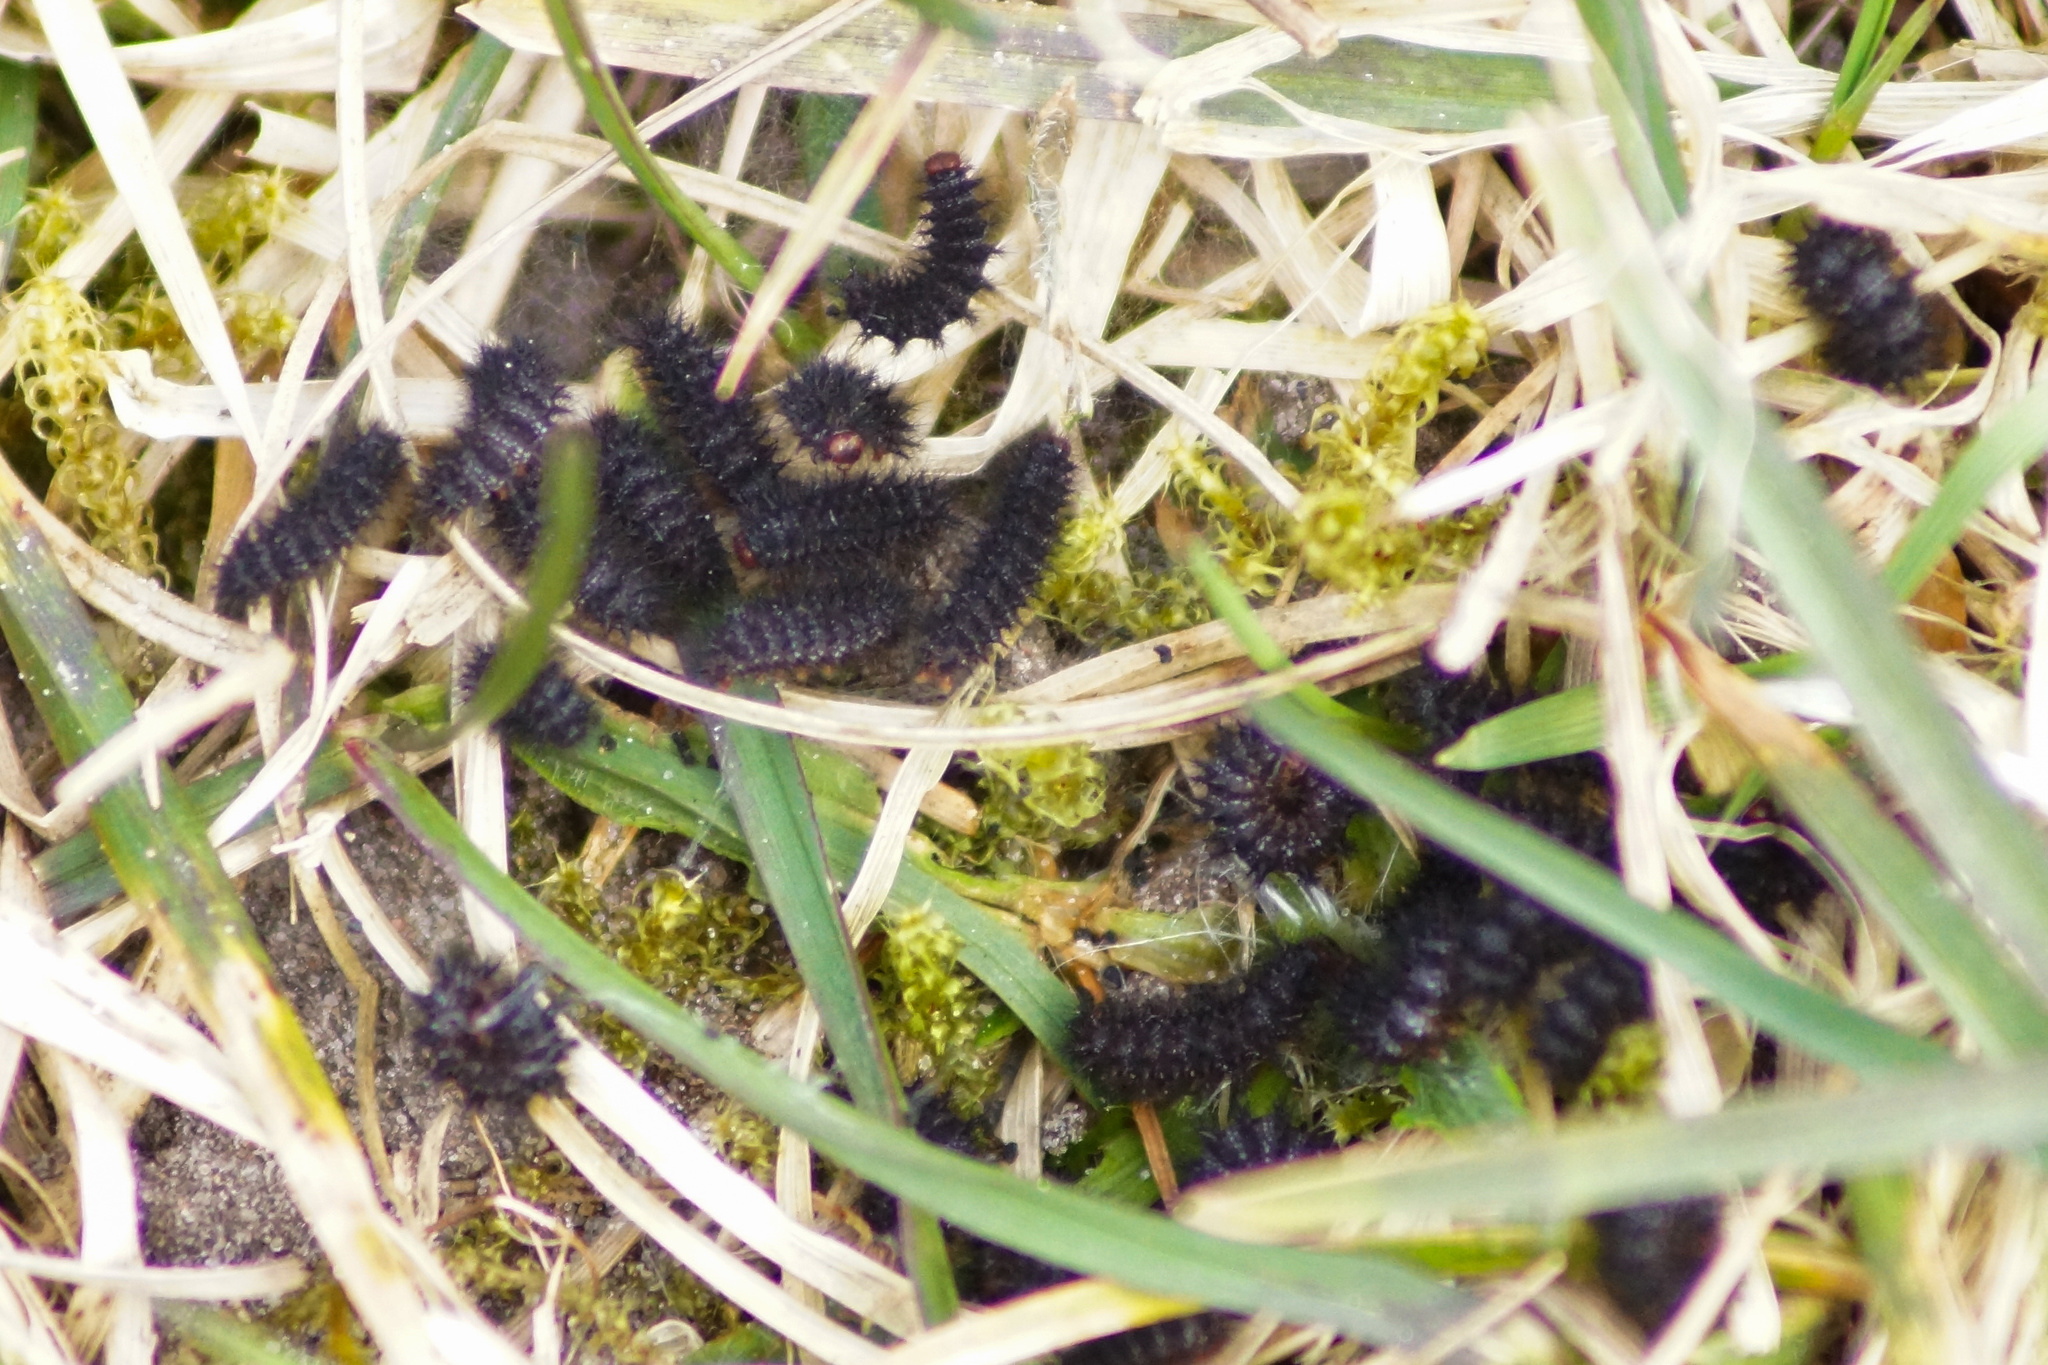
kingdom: Animalia
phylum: Arthropoda
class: Insecta
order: Lepidoptera
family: Nymphalidae
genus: Melitaea
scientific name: Melitaea cinxia
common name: Glanville fritillary
